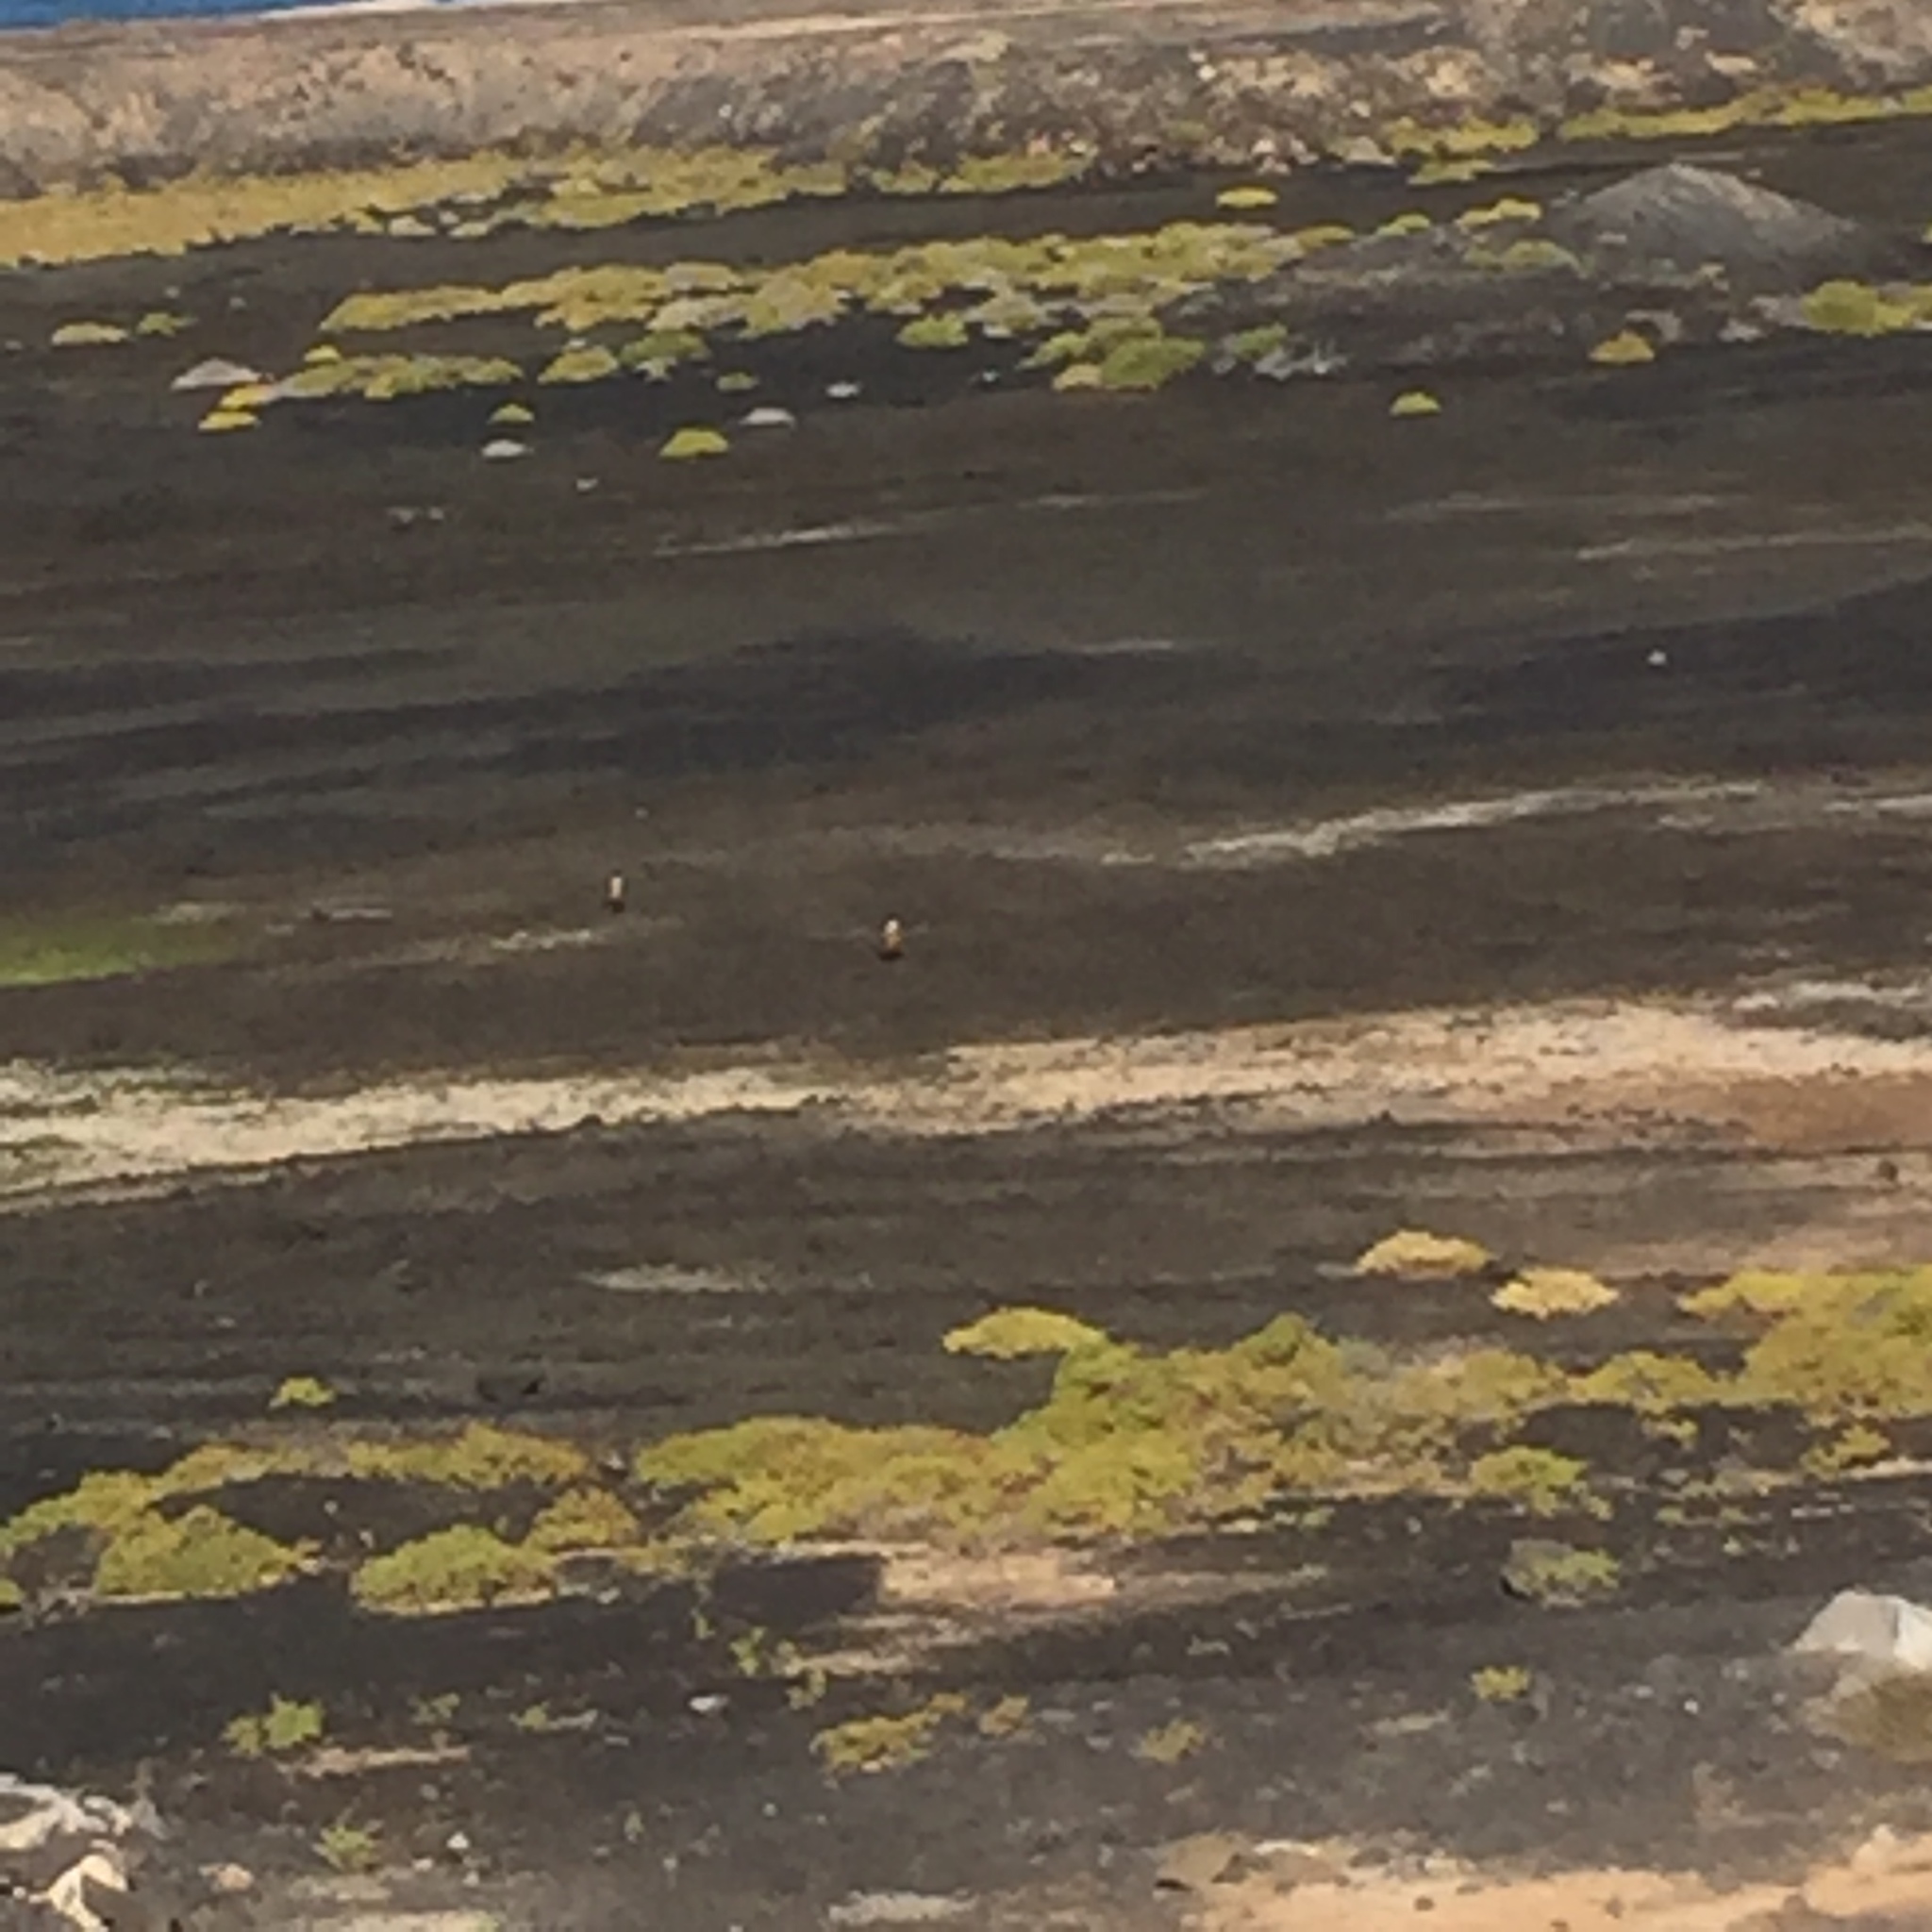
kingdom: Animalia
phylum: Chordata
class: Aves
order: Anseriformes
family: Anatidae
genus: Tadorna
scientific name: Tadorna ferruginea
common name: Ruddy shelduck
